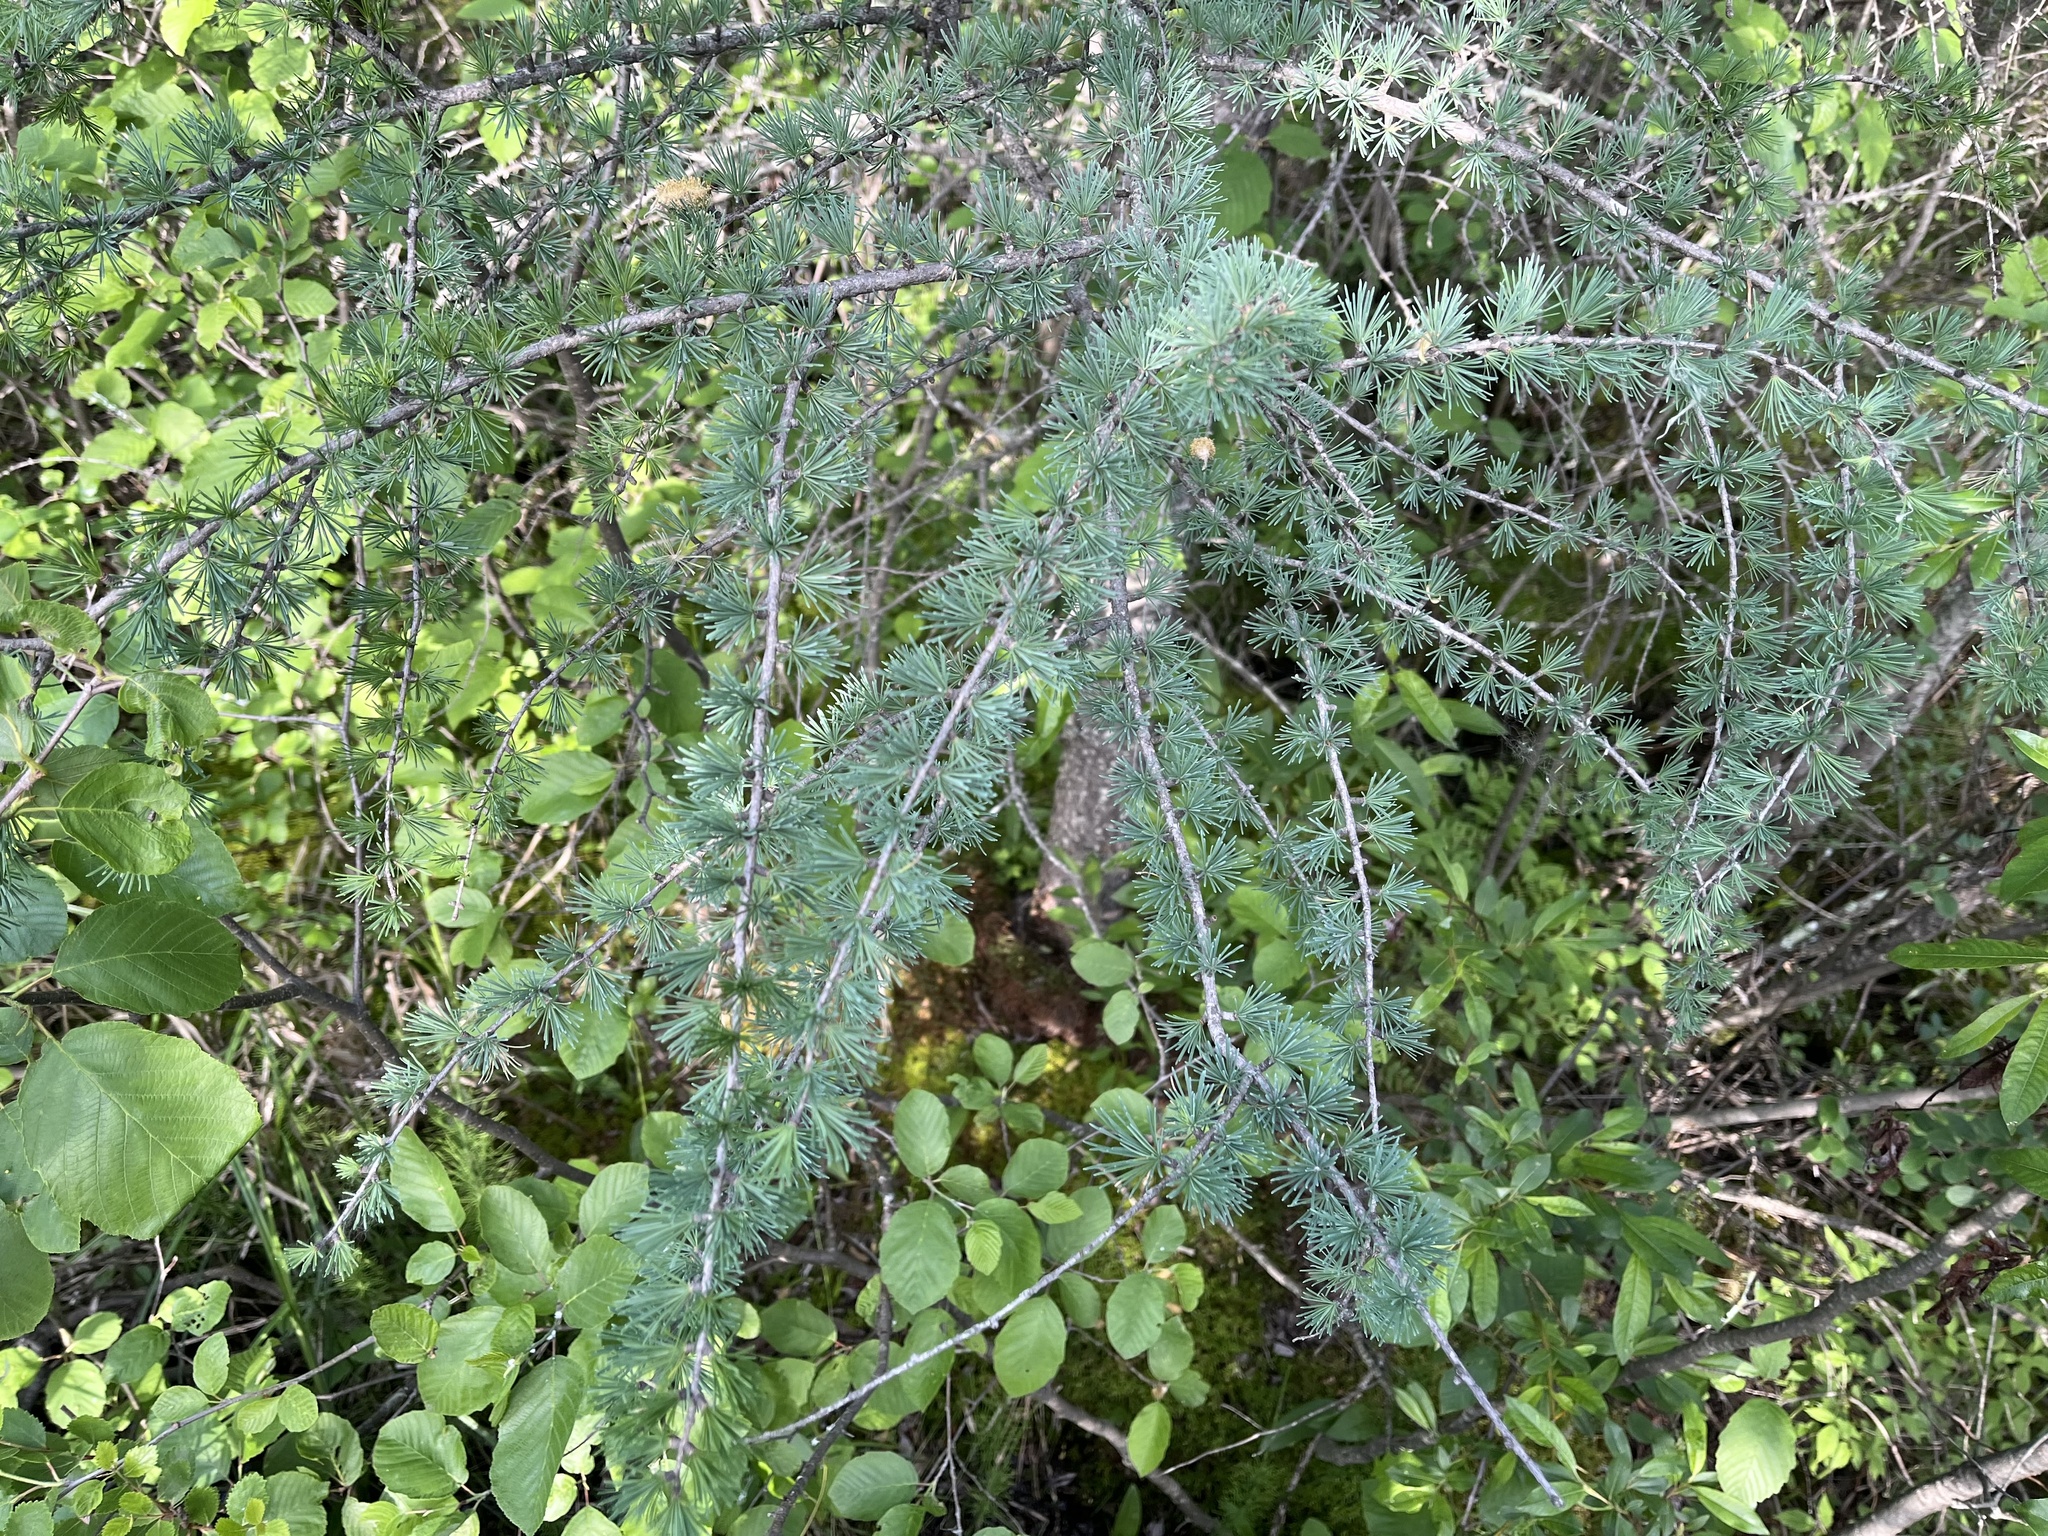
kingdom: Plantae
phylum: Tracheophyta
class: Pinopsida
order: Pinales
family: Pinaceae
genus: Larix
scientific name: Larix laricina
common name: American larch
